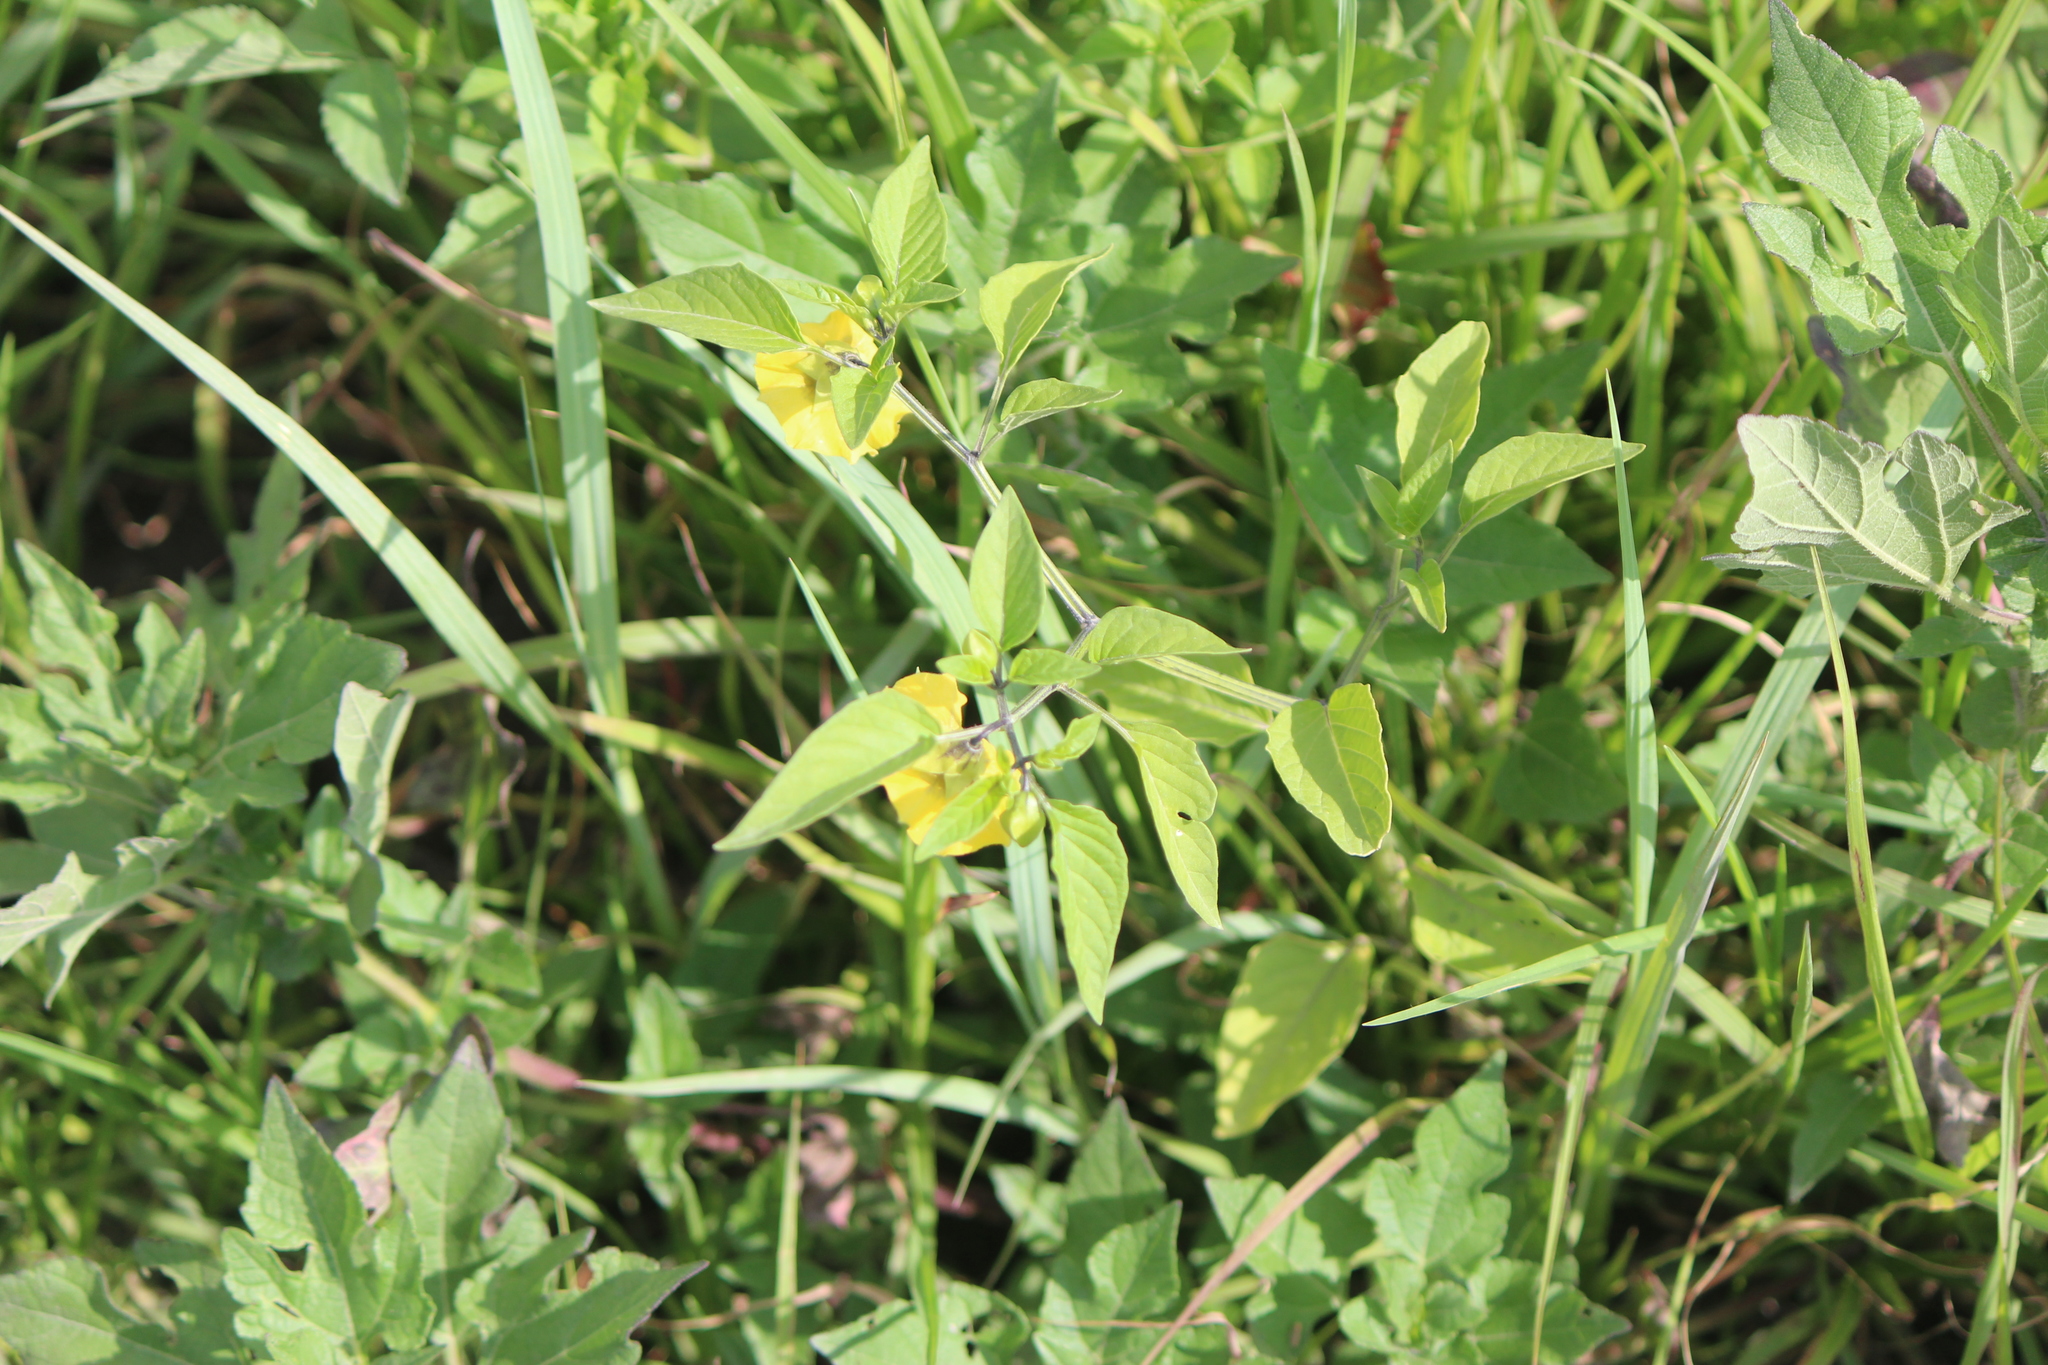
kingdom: Plantae
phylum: Tracheophyta
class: Magnoliopsida
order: Solanales
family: Solanaceae
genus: Physalis
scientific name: Physalis philadelphica
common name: Husk-tomato
